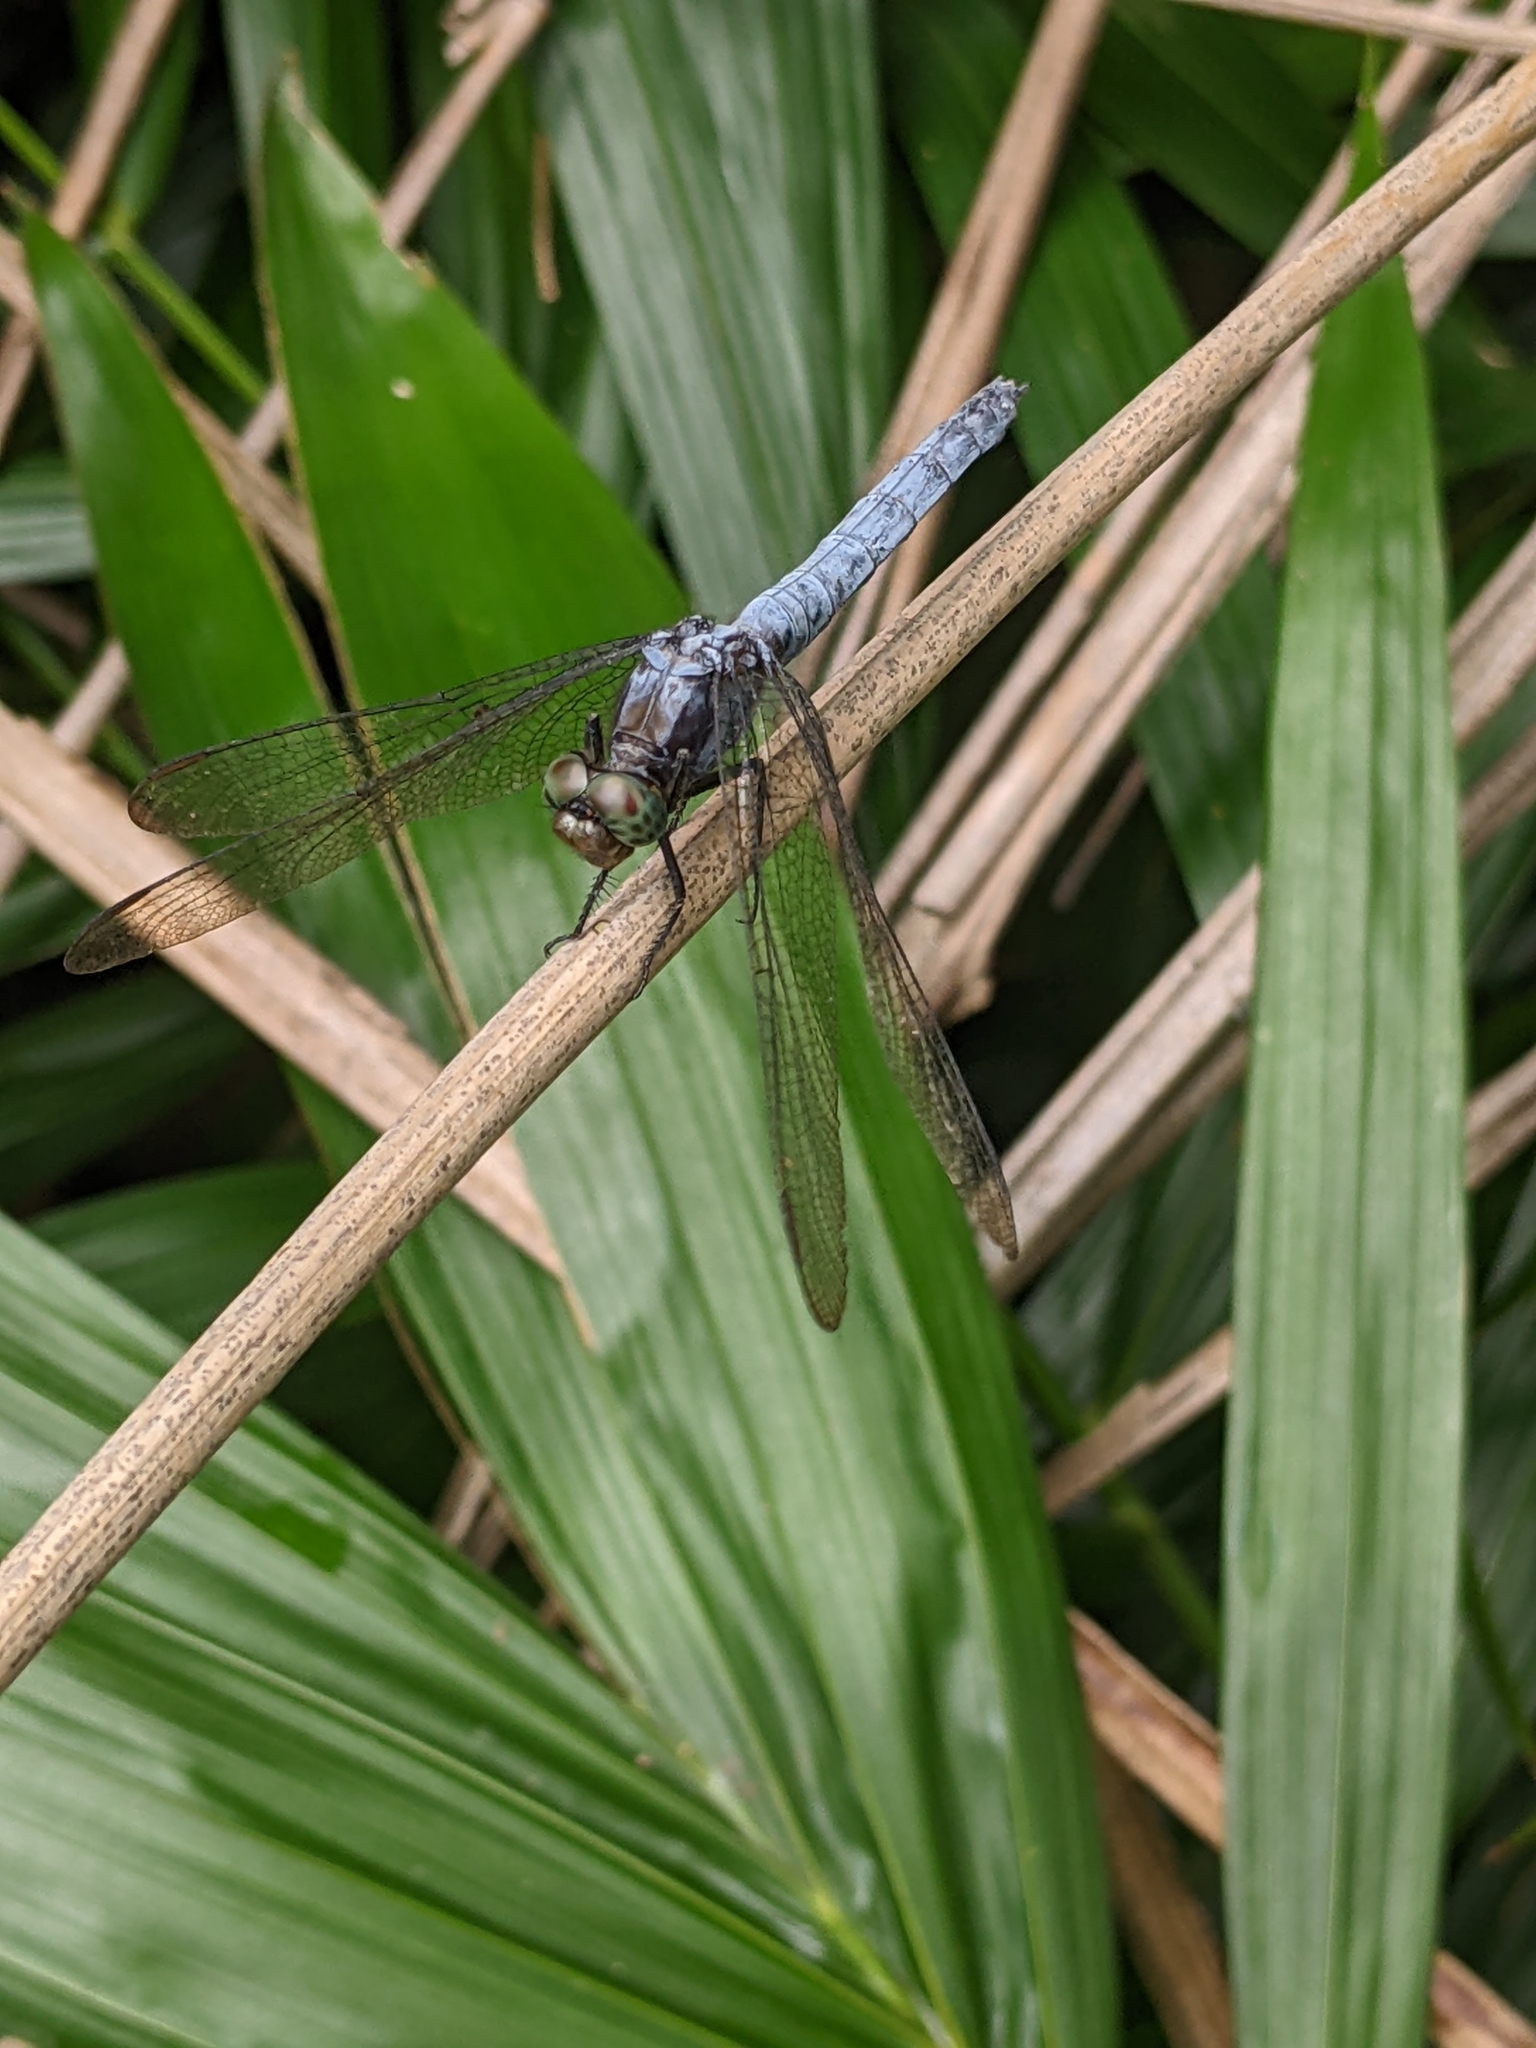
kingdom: Animalia
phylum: Arthropoda
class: Insecta
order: Odonata
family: Libellulidae
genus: Orthetrum
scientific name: Orthetrum glaucum
